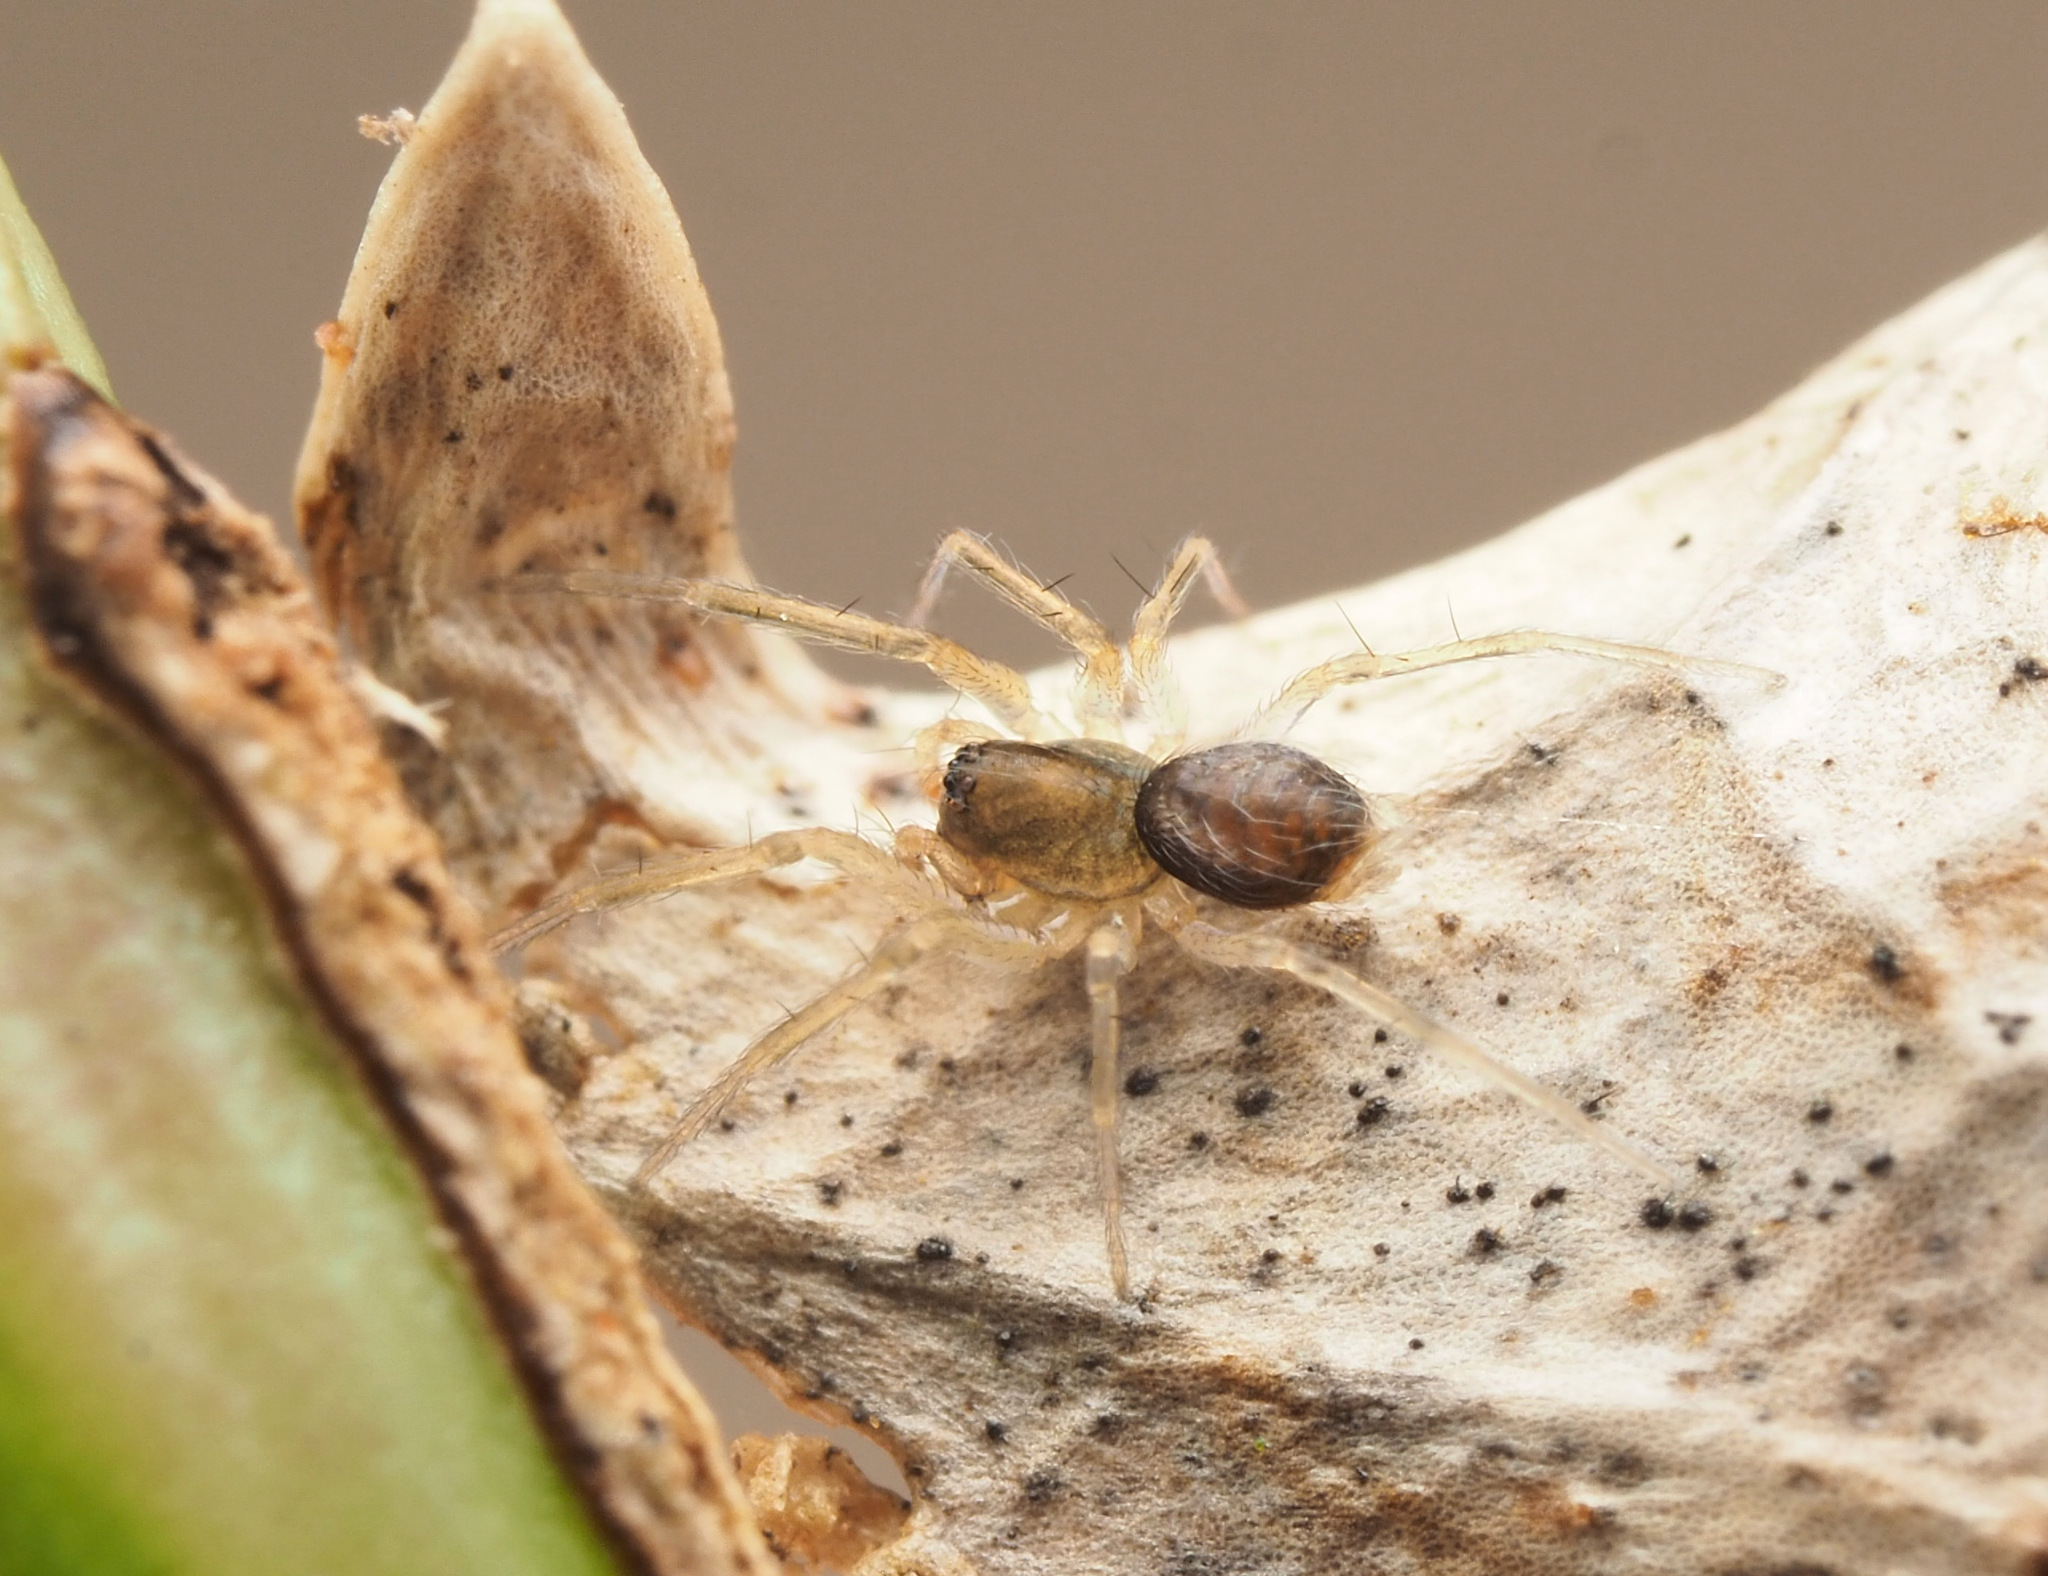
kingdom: Animalia
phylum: Arthropoda
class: Arachnida
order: Araneae
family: Hahniidae
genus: Alistra
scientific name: Alistra
